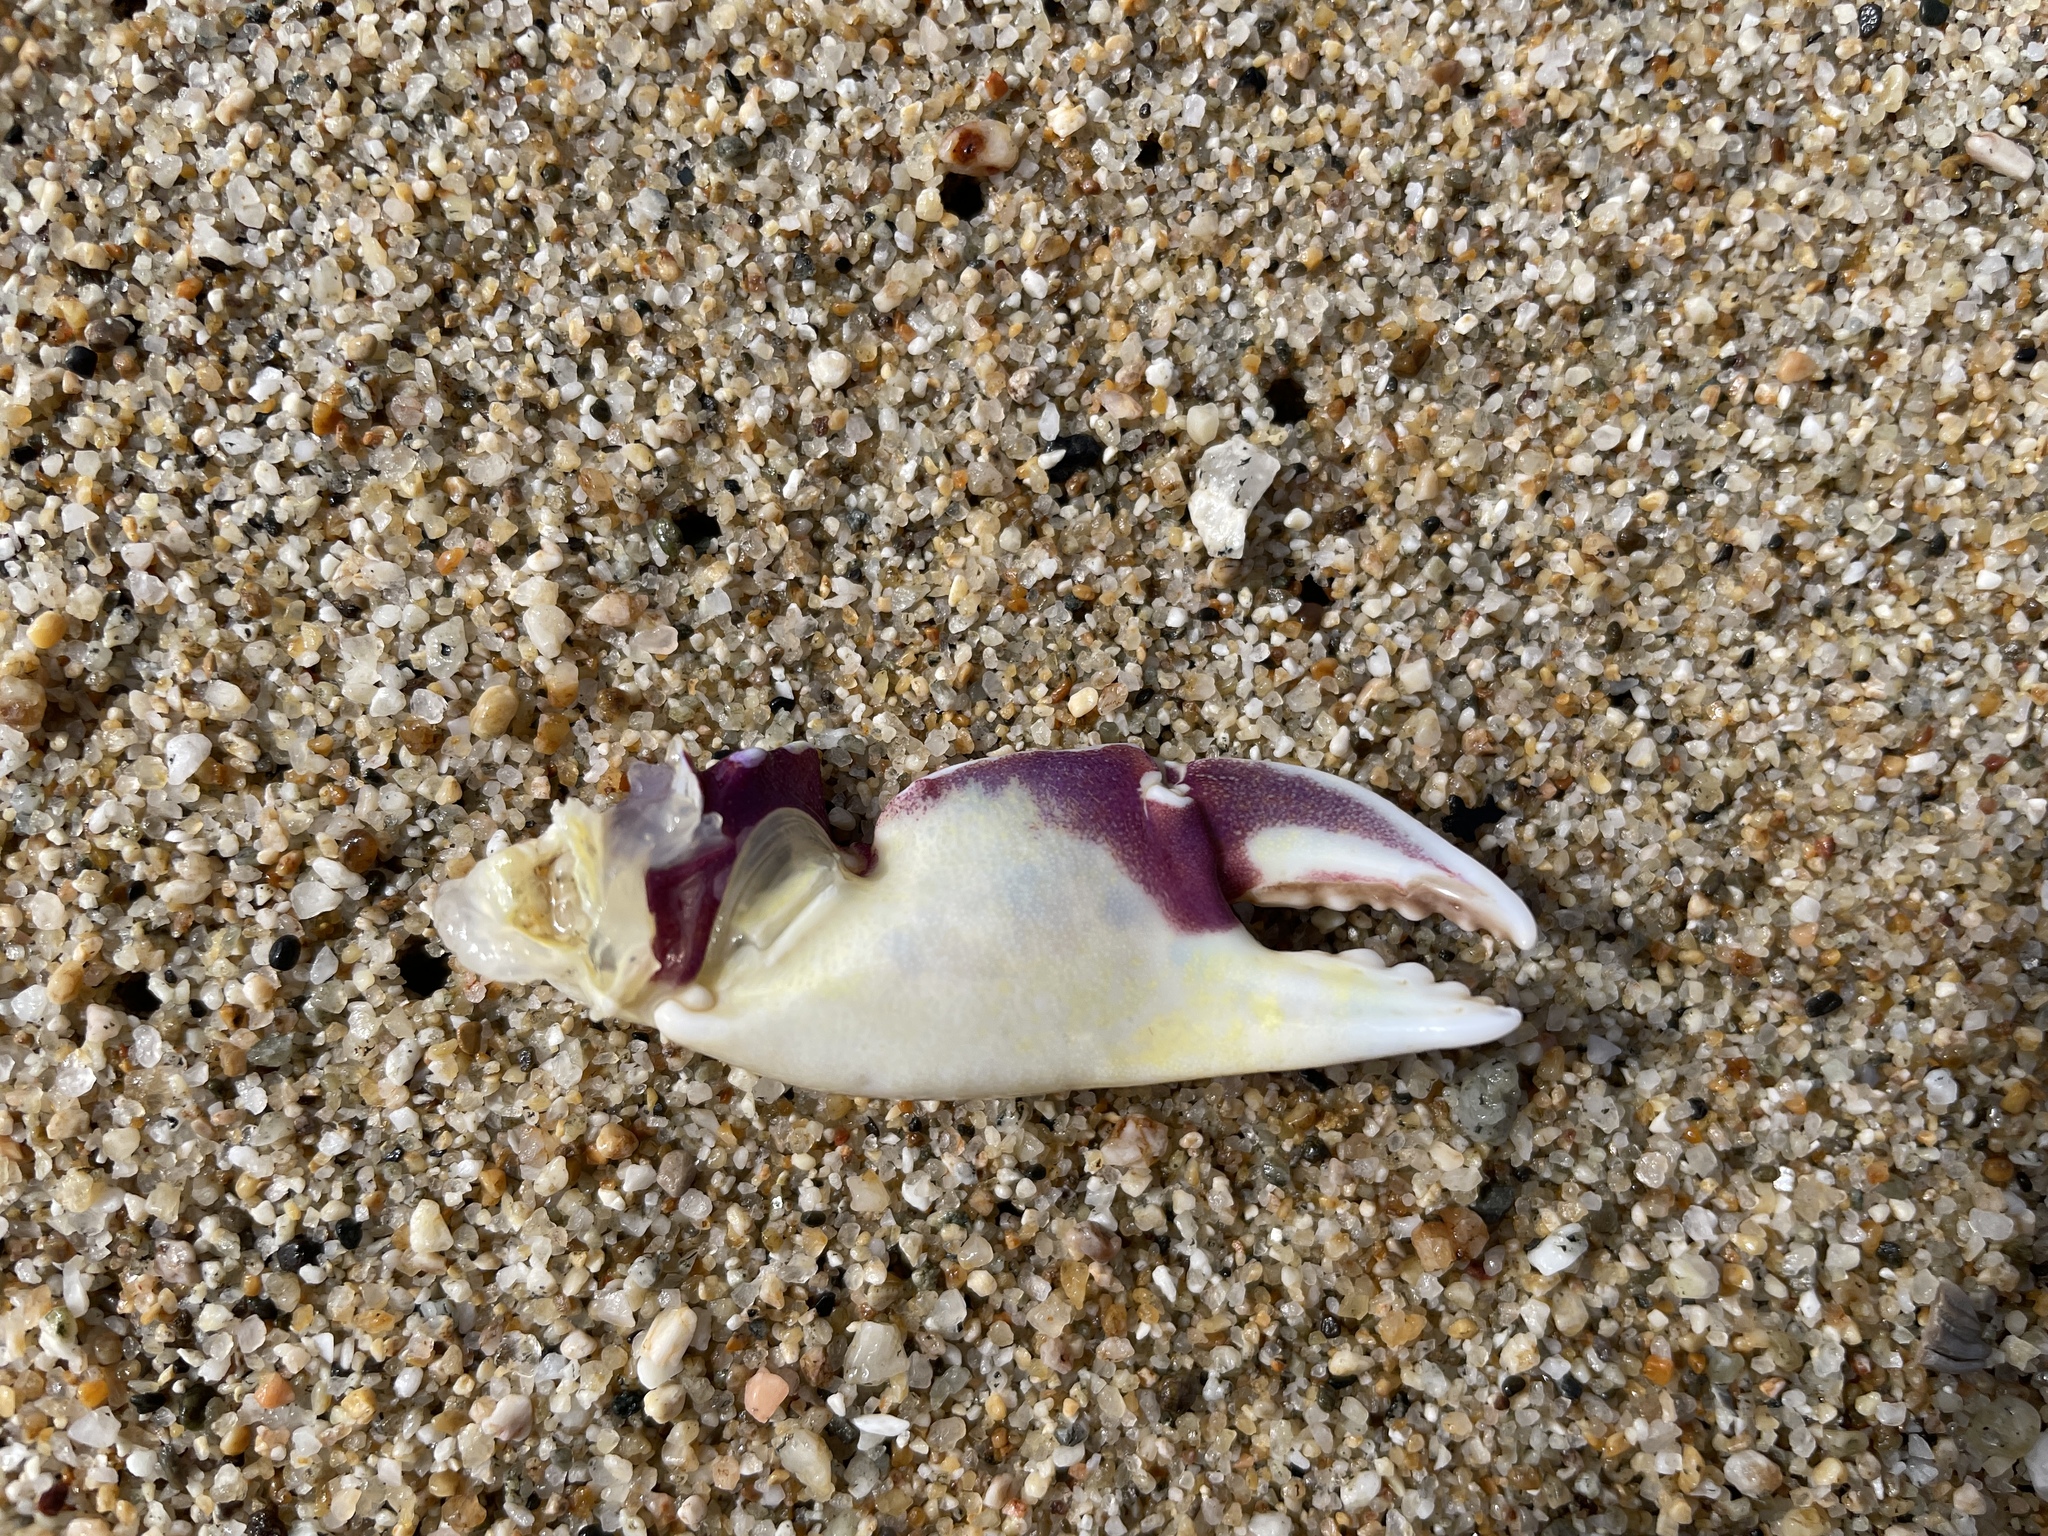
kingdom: Animalia
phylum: Arthropoda
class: Malacostraca
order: Decapoda
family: Cancridae
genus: Metacarcinus
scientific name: Metacarcinus gracilis
